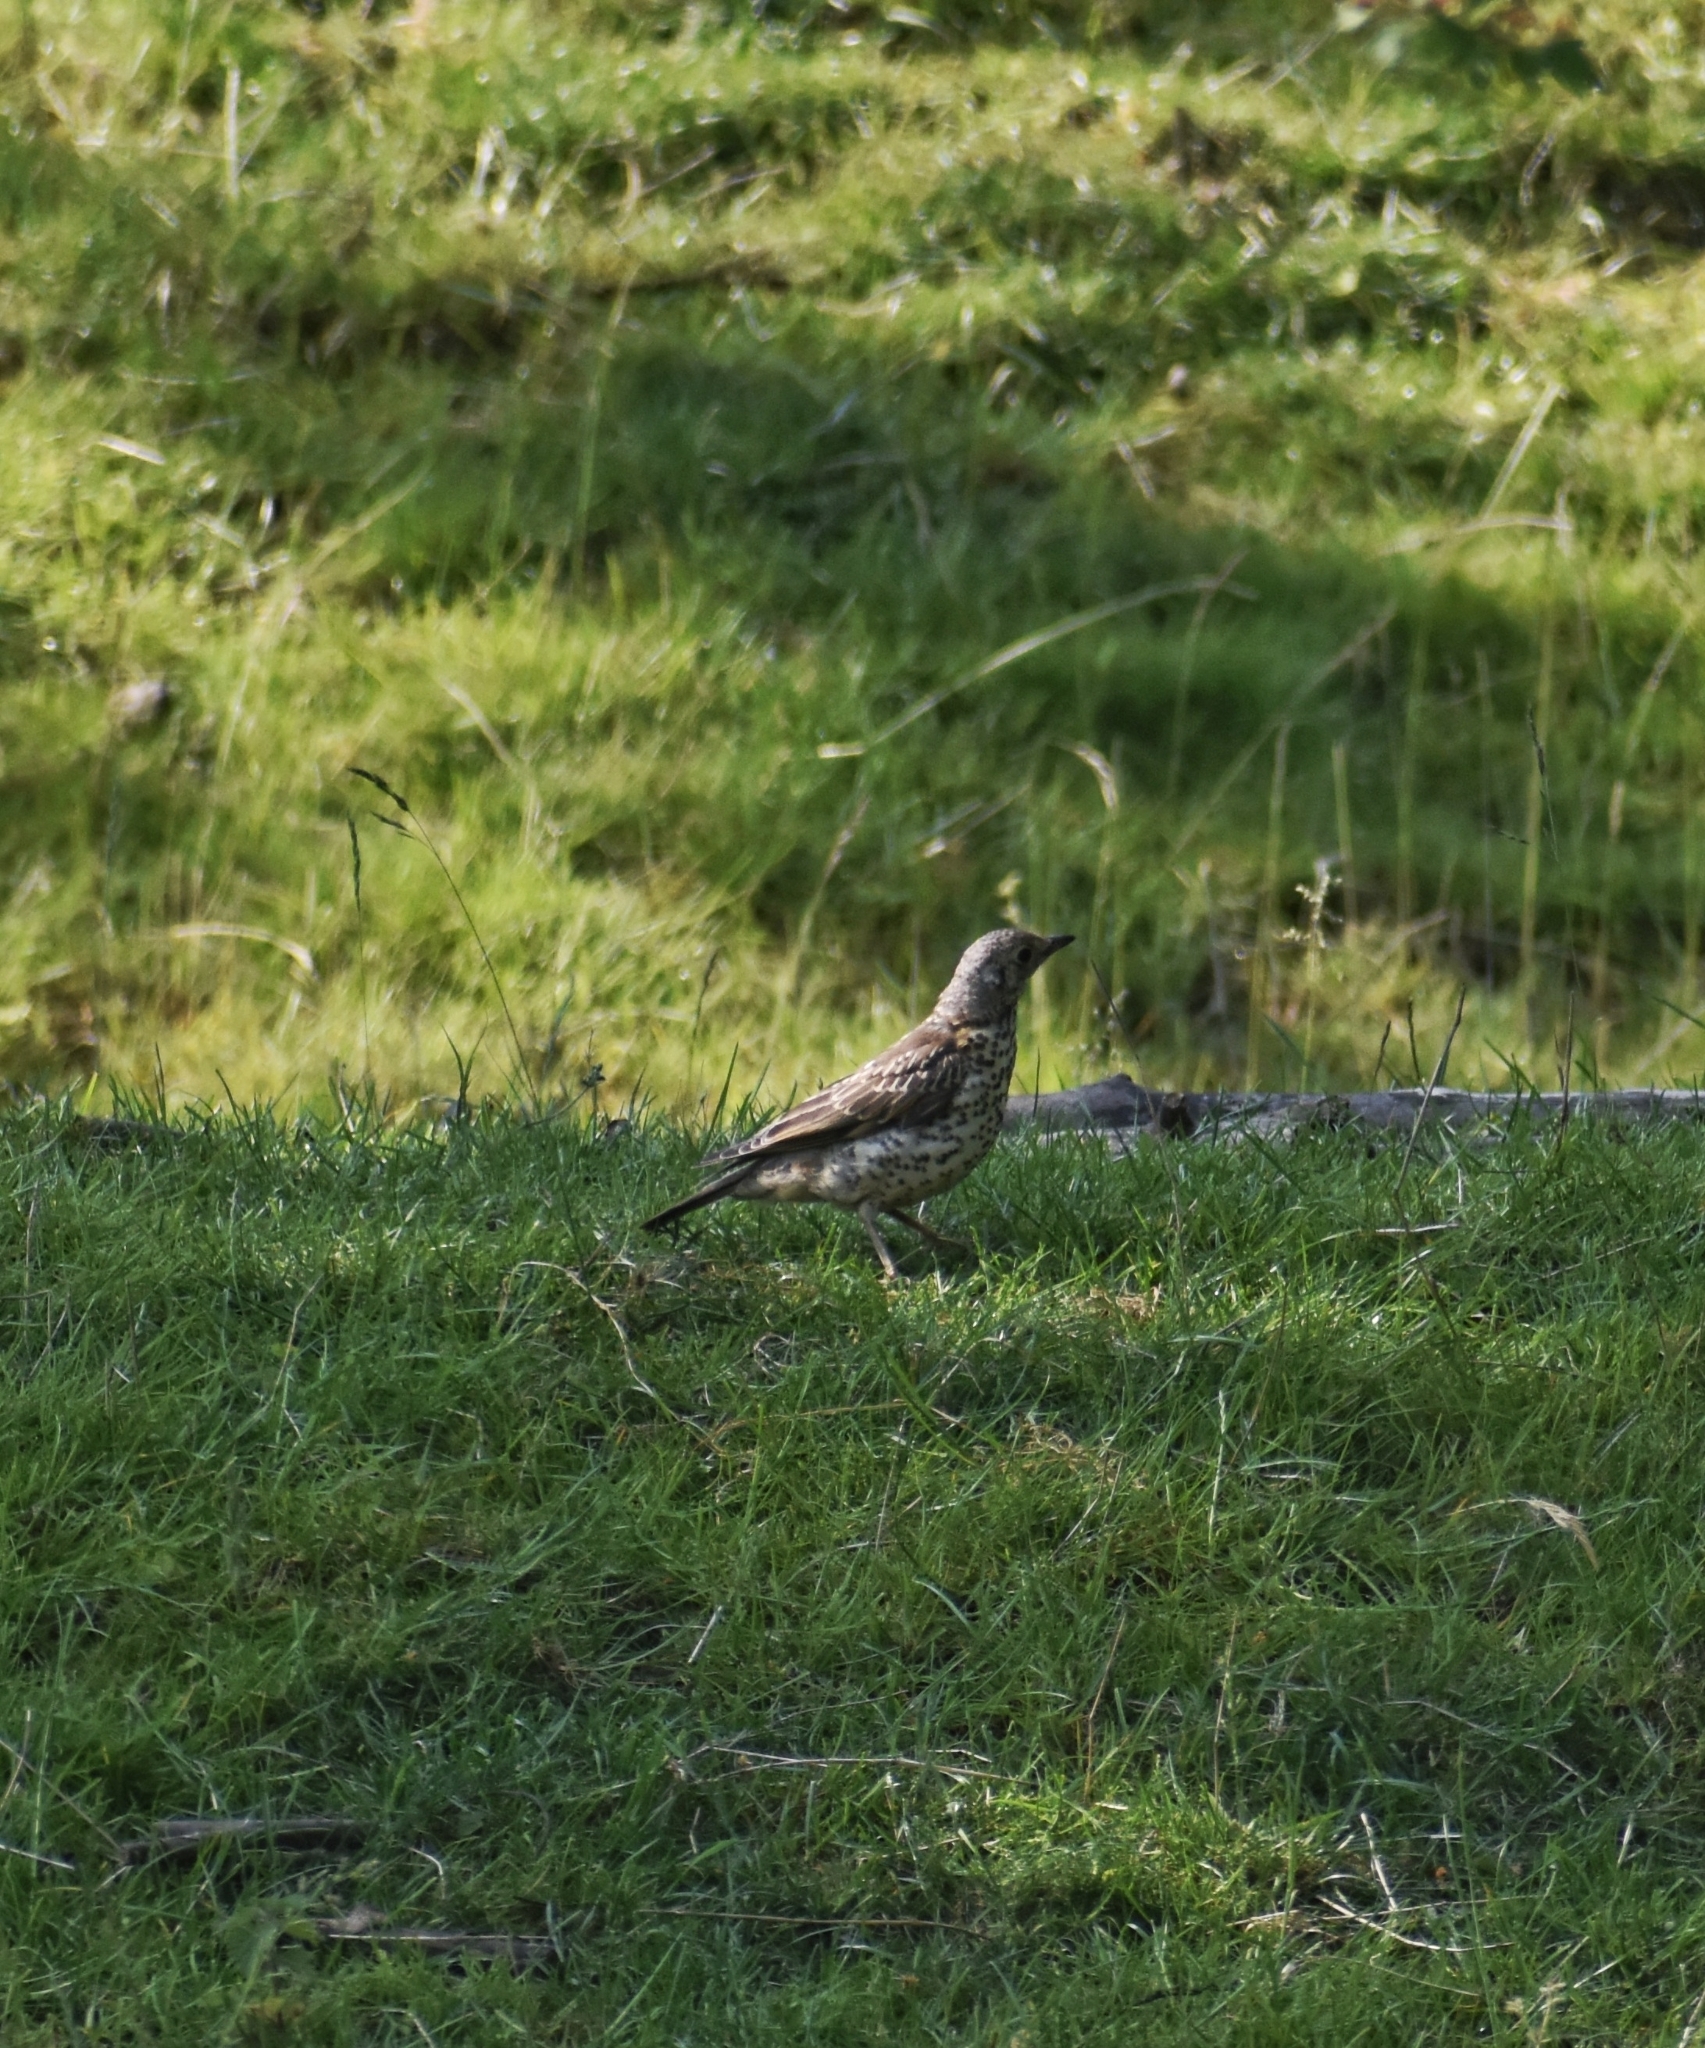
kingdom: Animalia
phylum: Chordata
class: Aves
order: Passeriformes
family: Turdidae
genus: Turdus
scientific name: Turdus viscivorus
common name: Mistle thrush
